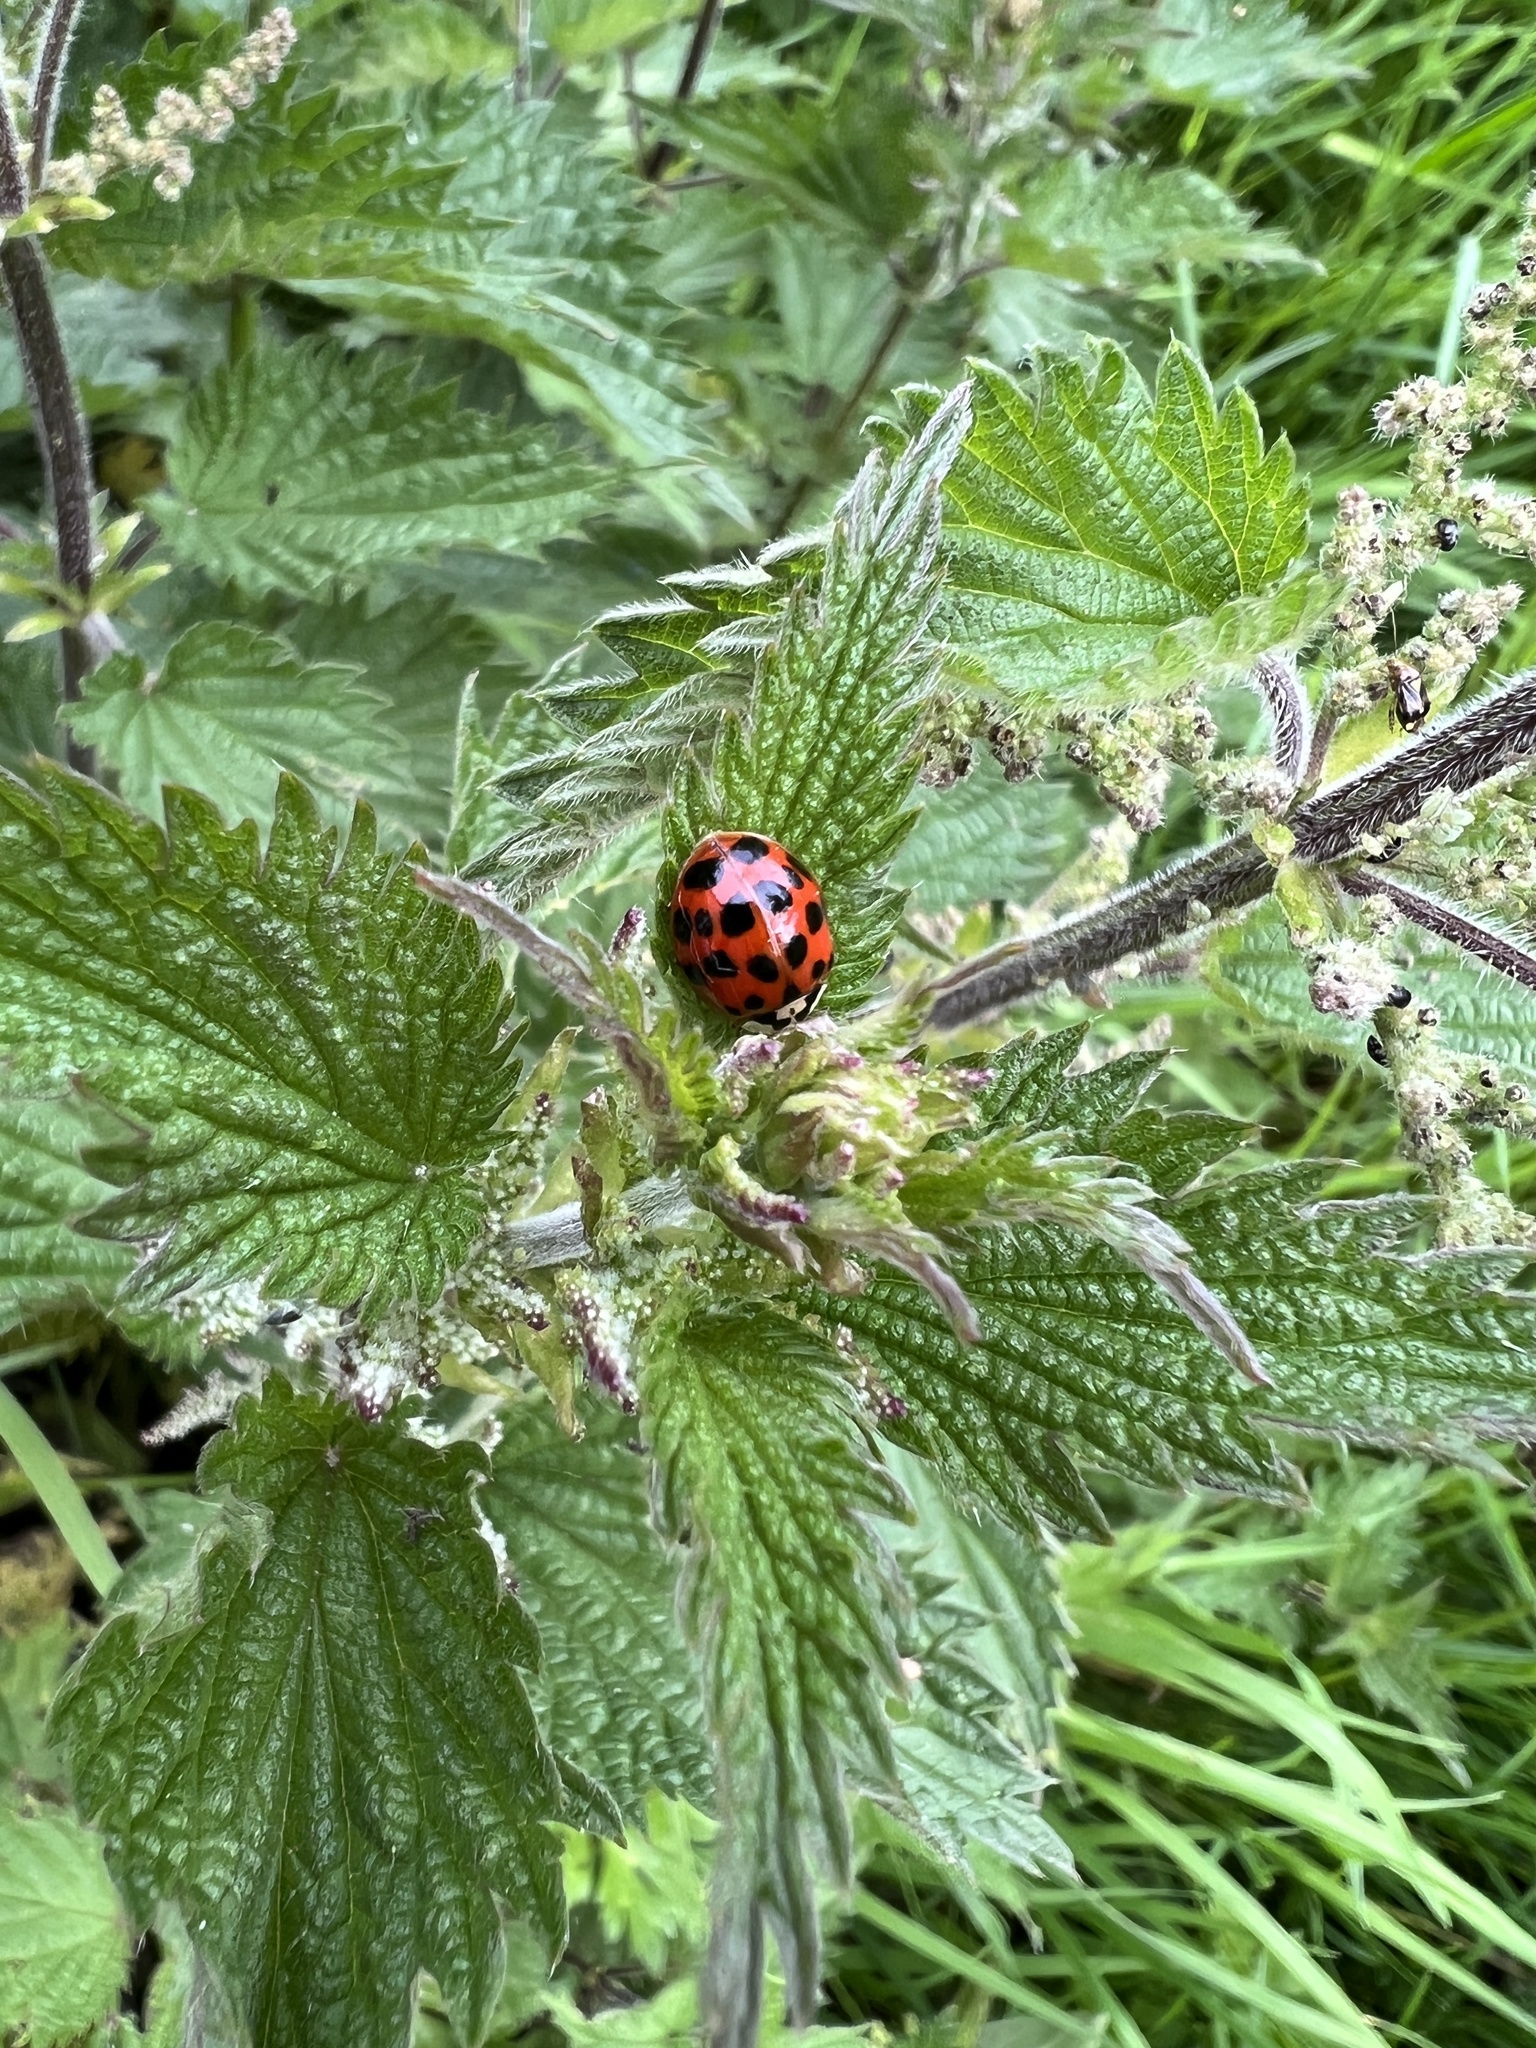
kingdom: Animalia
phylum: Arthropoda
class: Insecta
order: Coleoptera
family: Coccinellidae
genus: Harmonia
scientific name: Harmonia axyridis
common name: Harlequin ladybird
